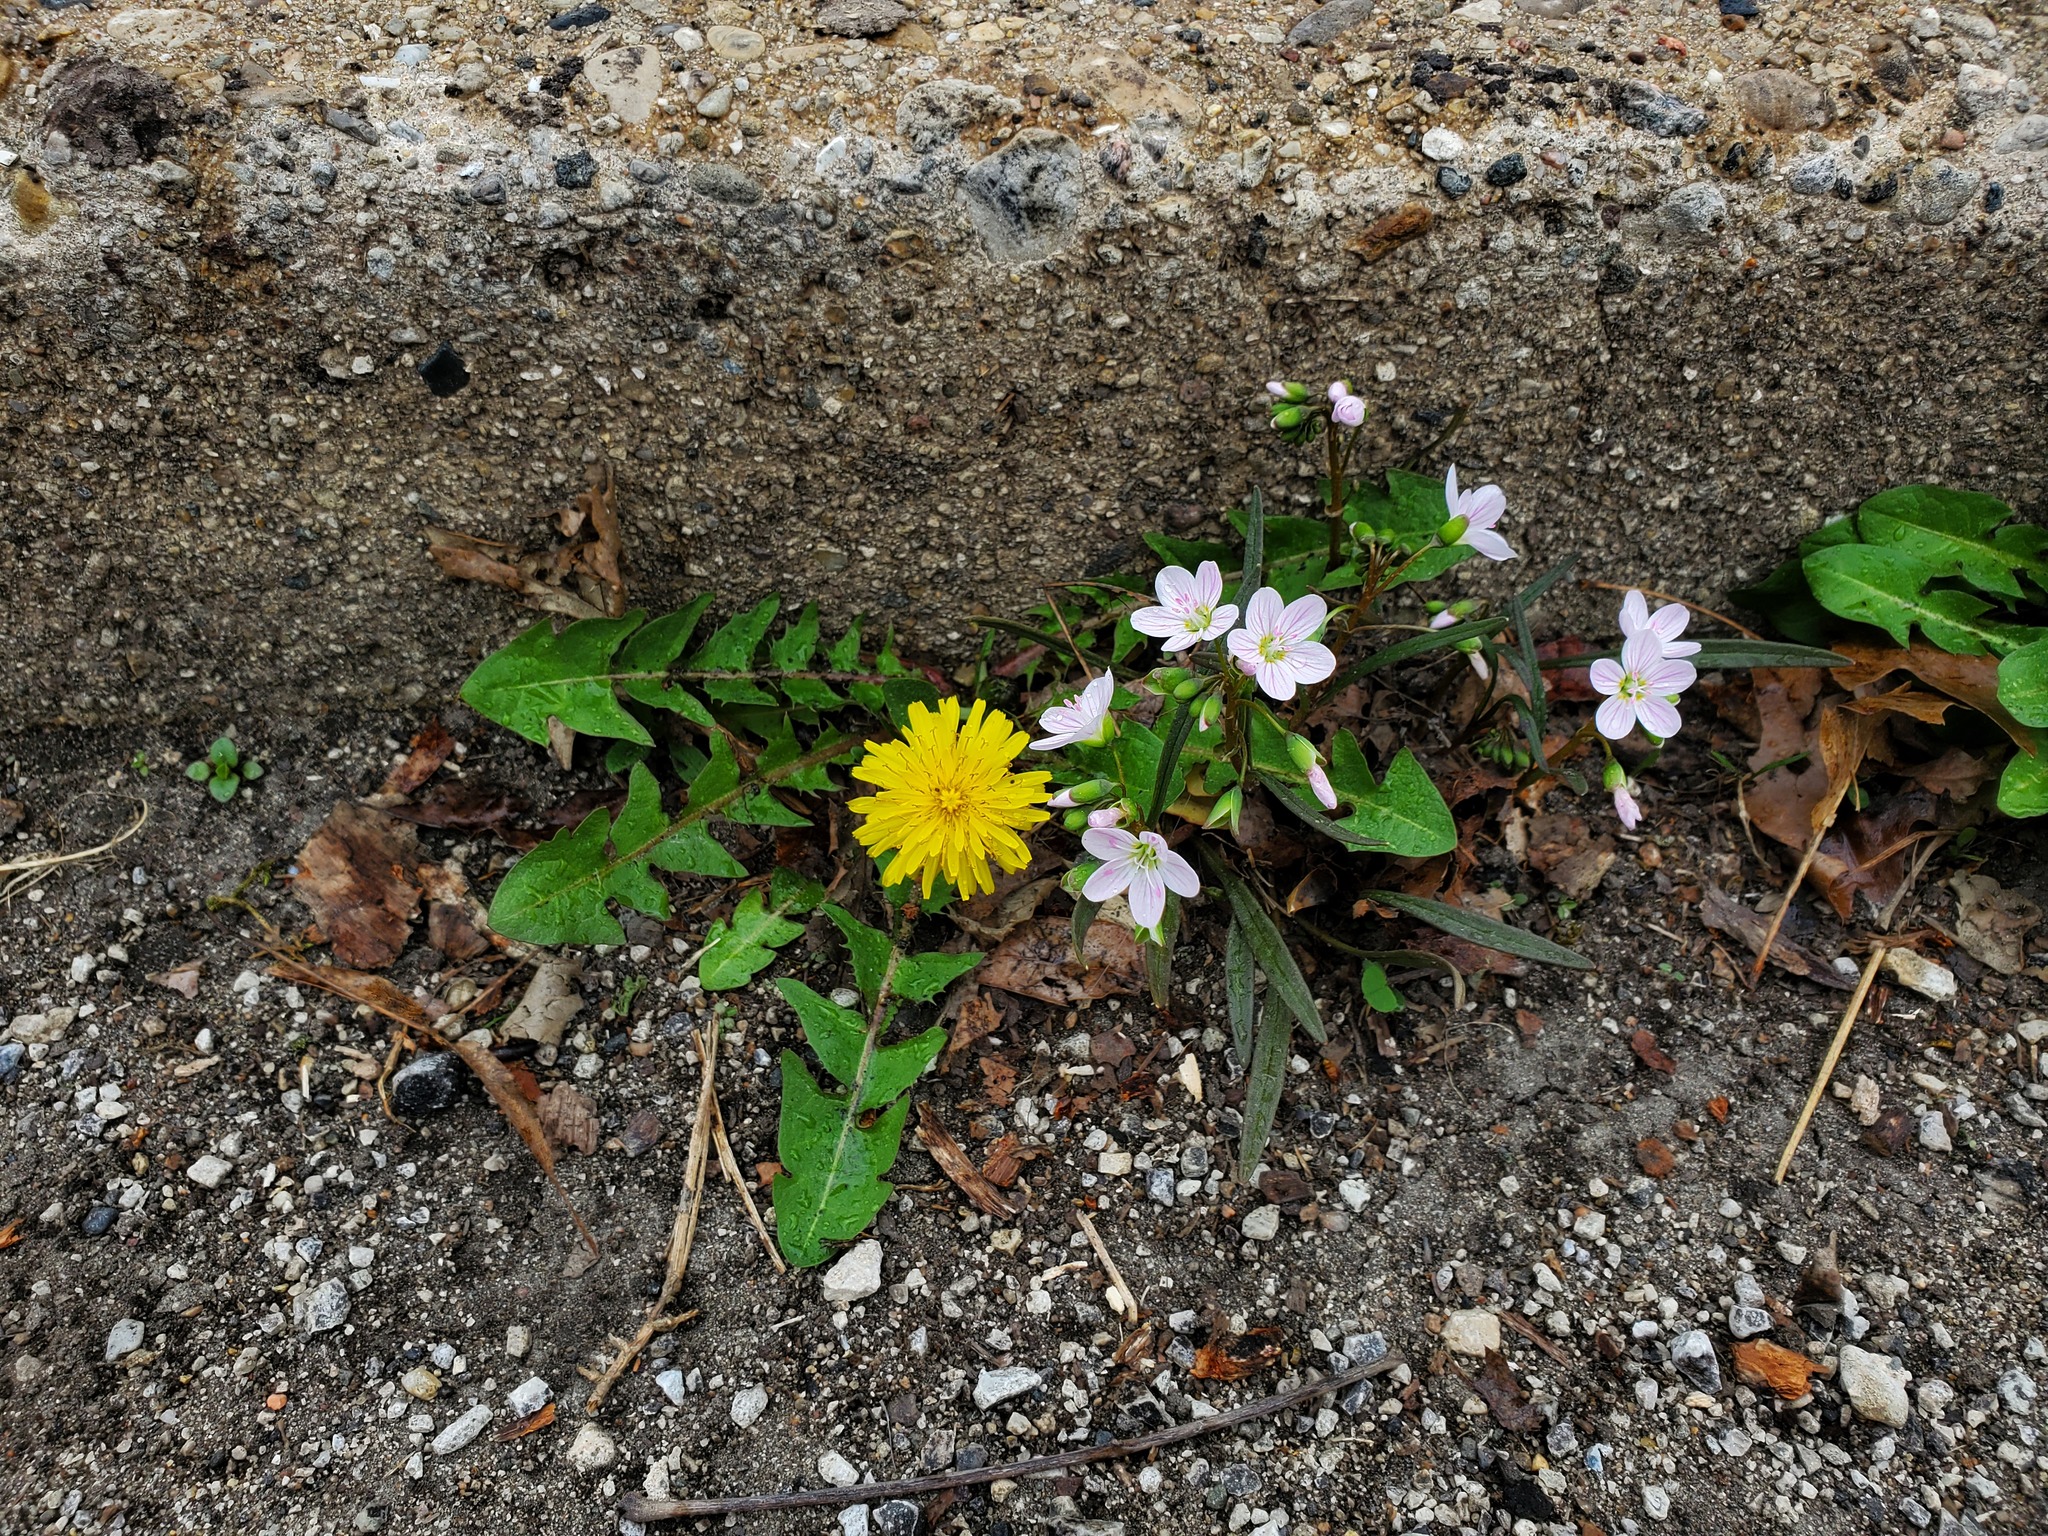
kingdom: Plantae
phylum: Tracheophyta
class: Magnoliopsida
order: Caryophyllales
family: Montiaceae
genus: Claytonia
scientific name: Claytonia virginica
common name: Virginia springbeauty
